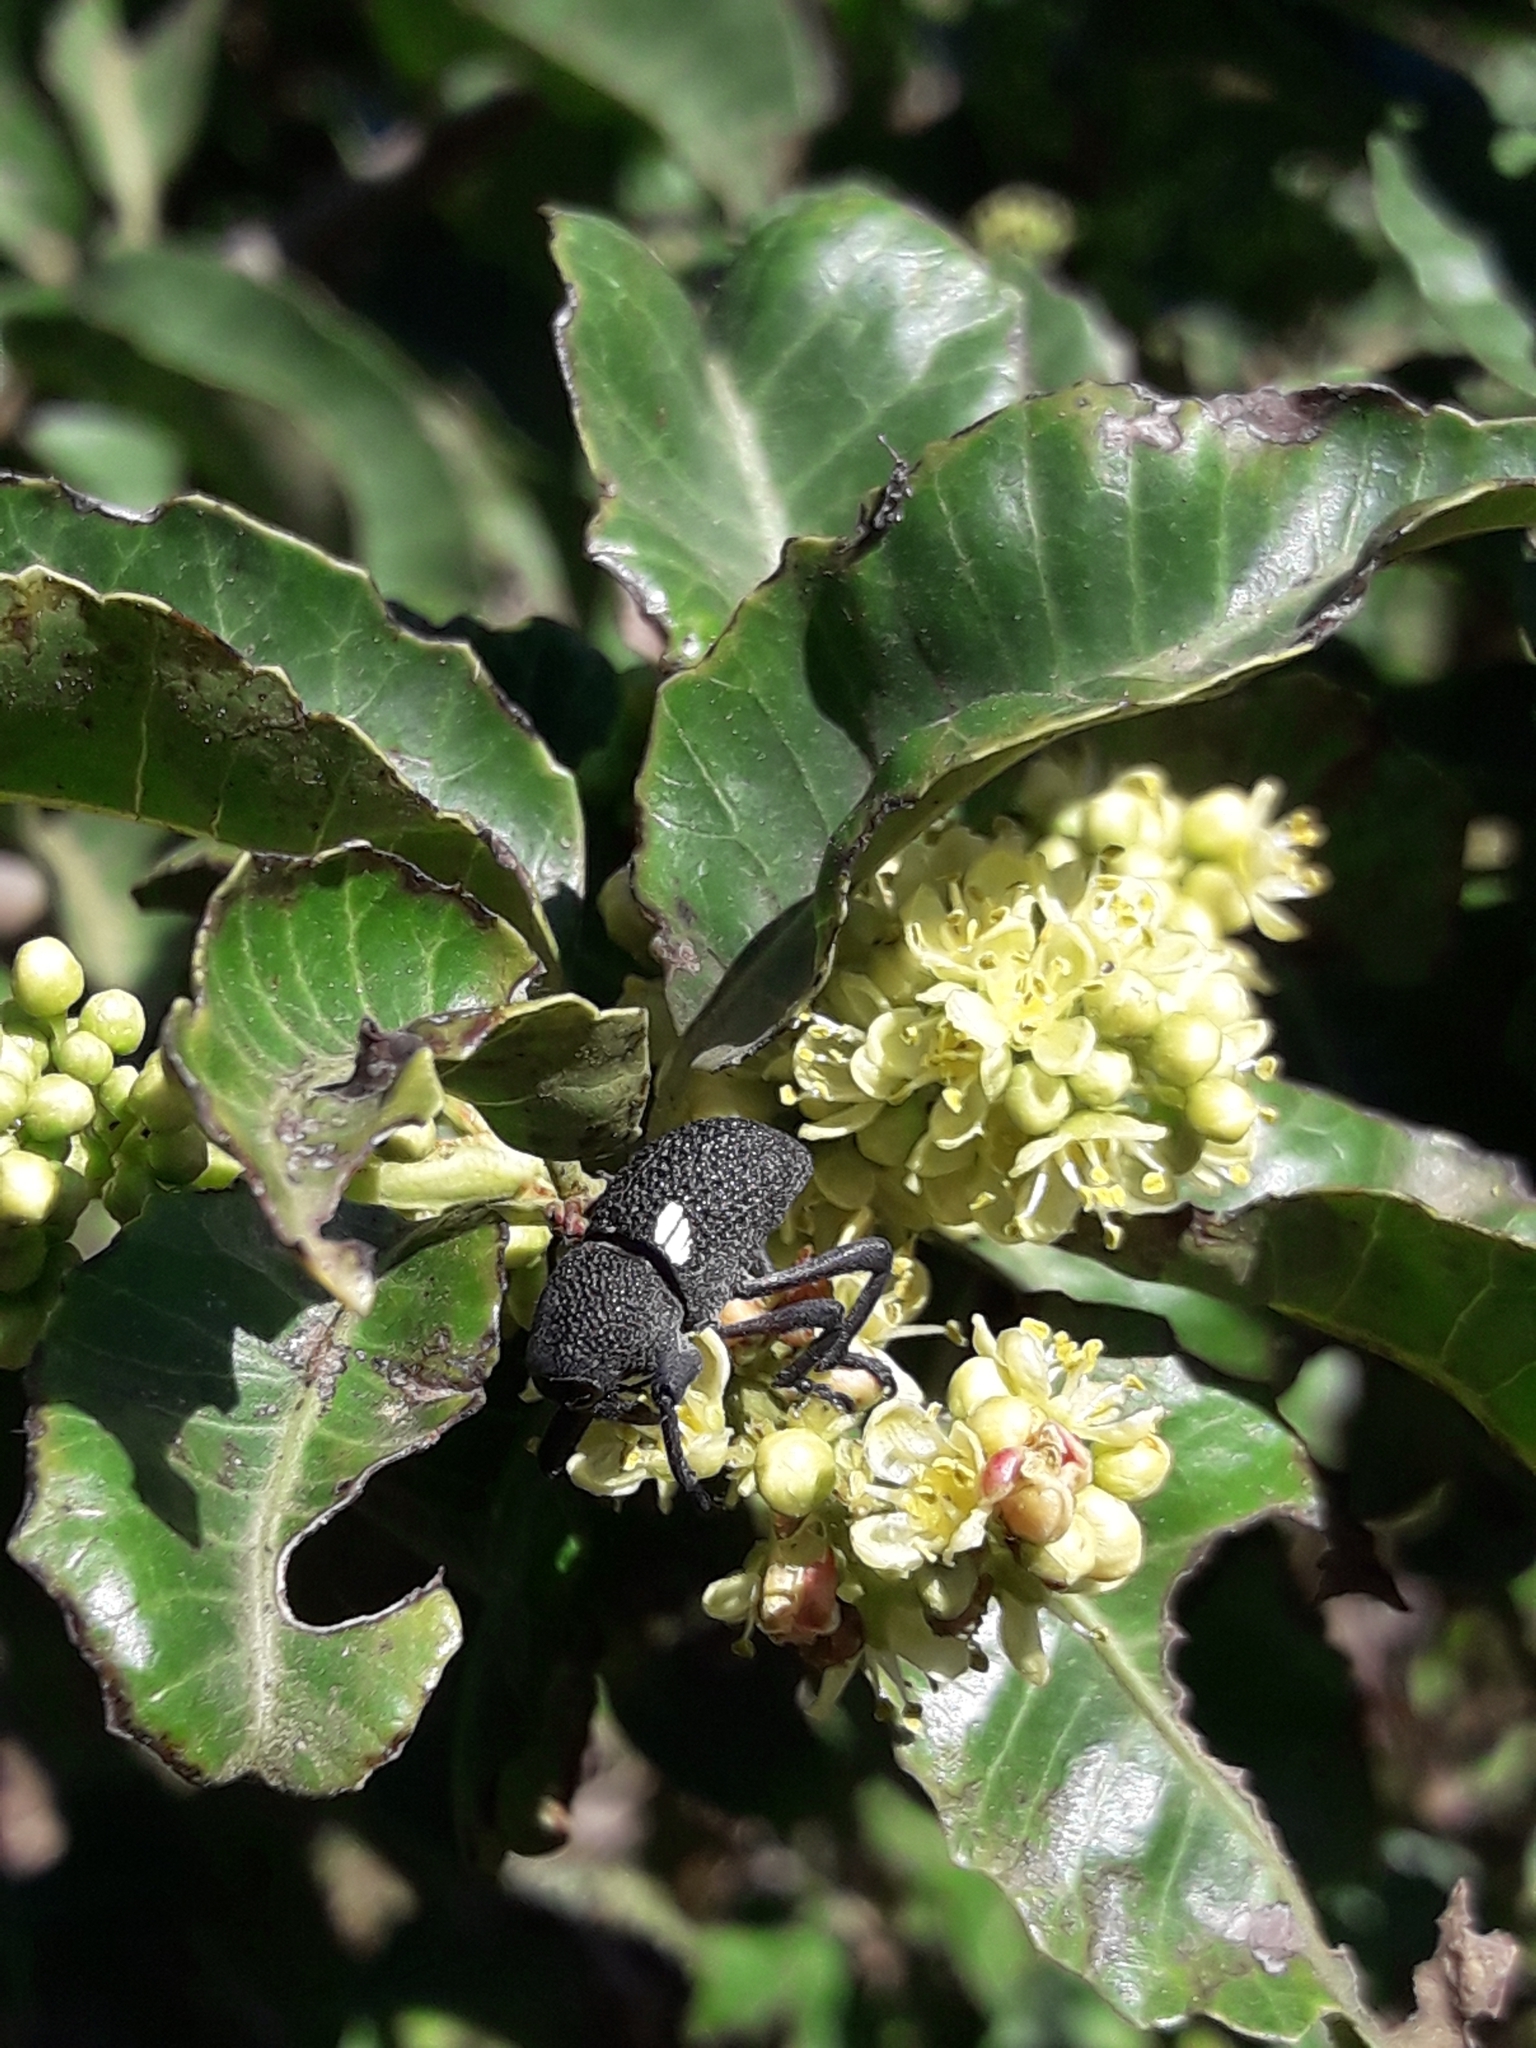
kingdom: Plantae
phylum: Tracheophyta
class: Magnoliopsida
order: Sapindales
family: Anacardiaceae
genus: Schinus
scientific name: Schinus latifolia
